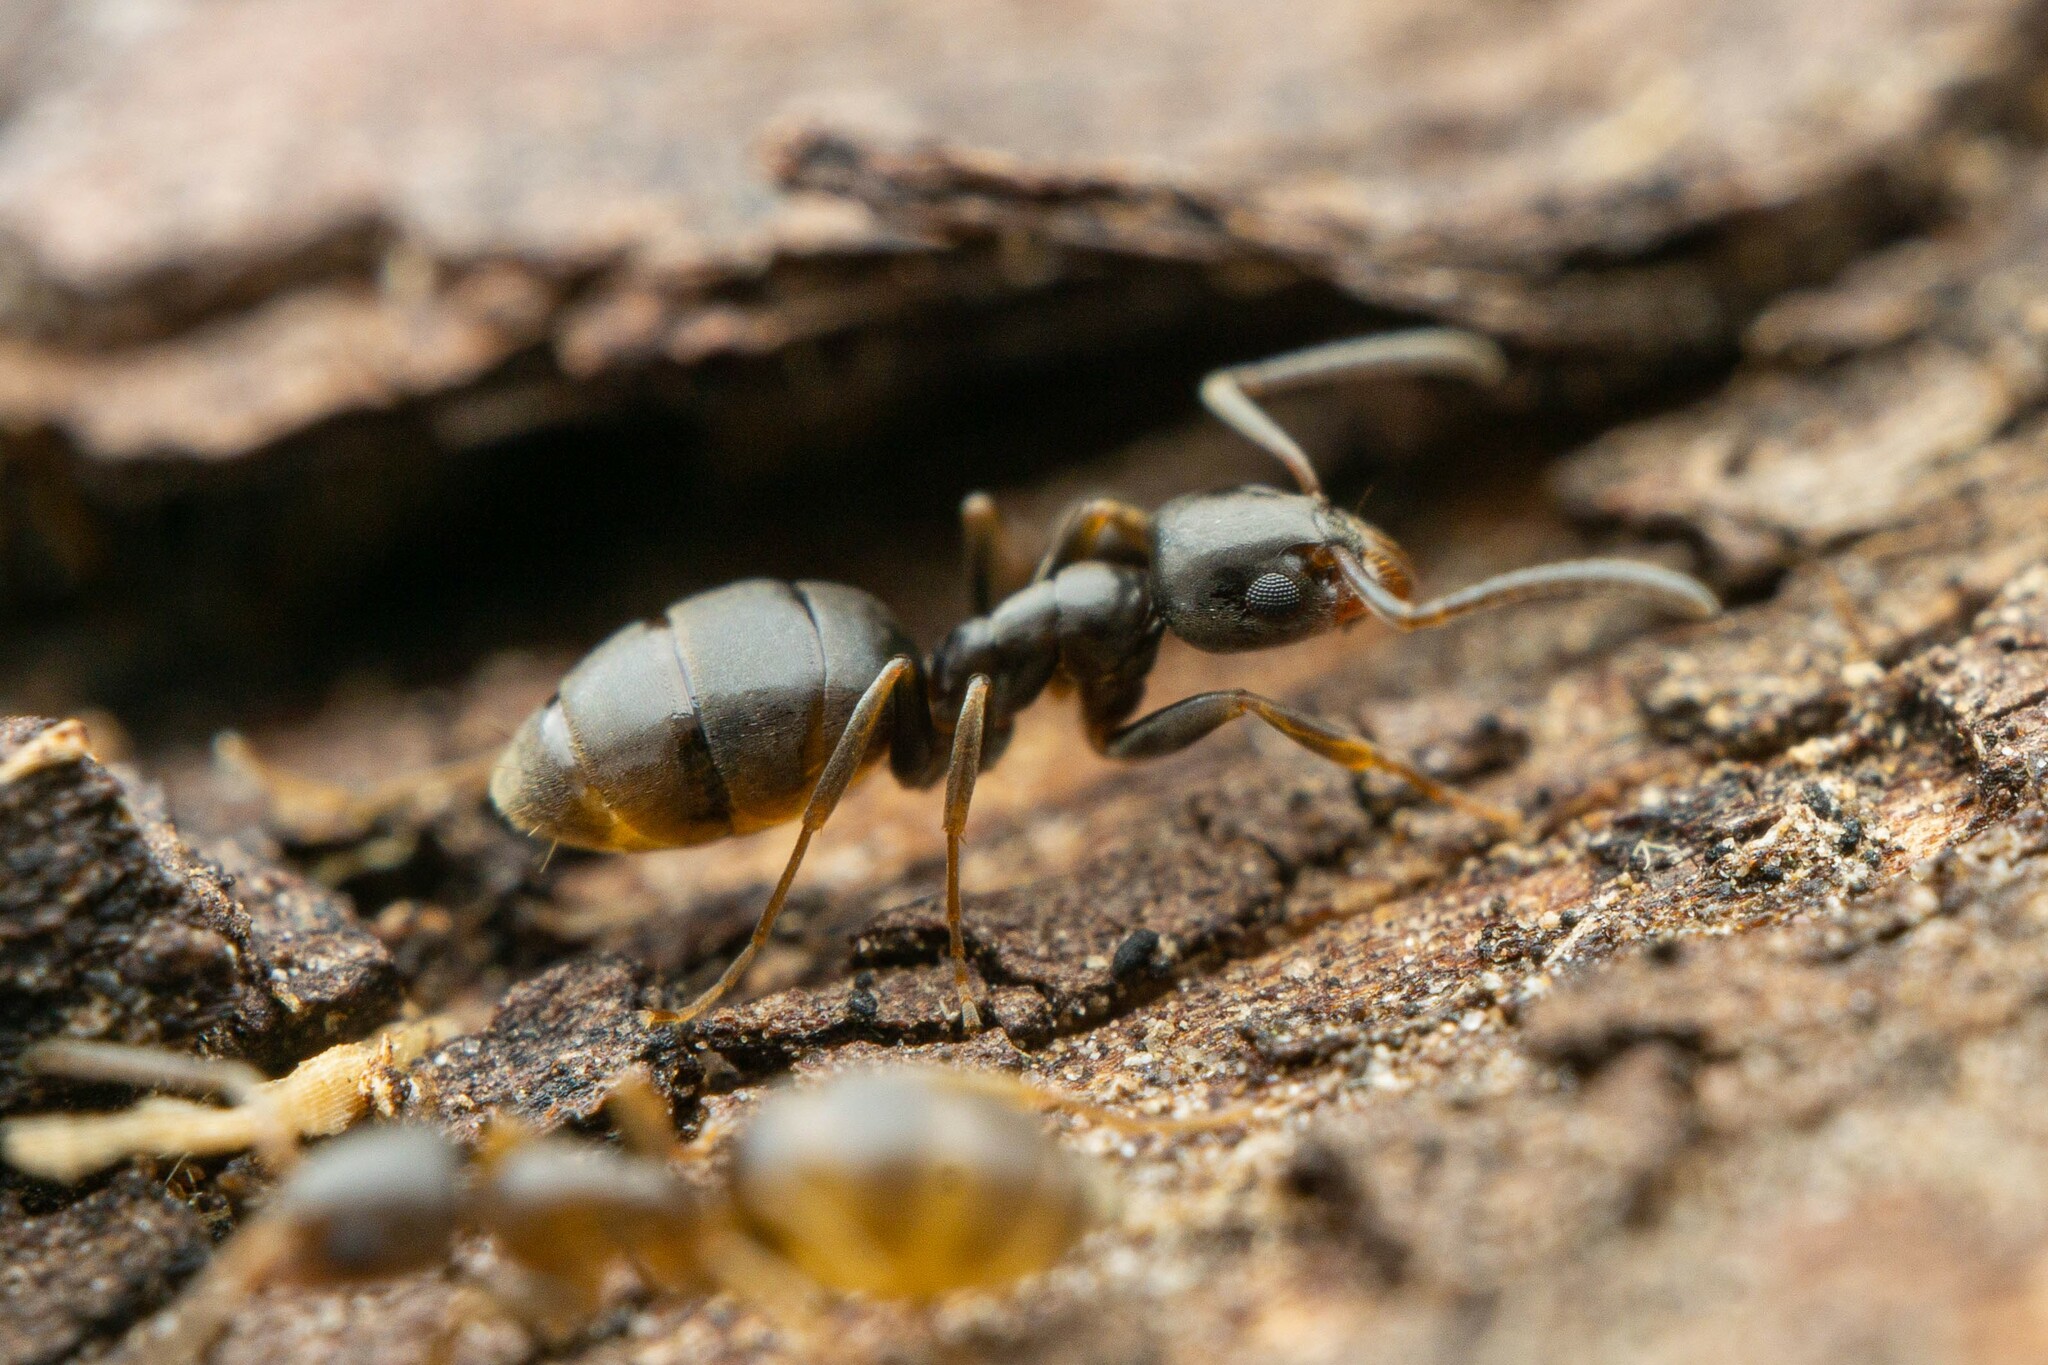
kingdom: Animalia
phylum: Arthropoda
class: Insecta
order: Hymenoptera
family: Formicidae
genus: Tapinoma
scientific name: Tapinoma sessile
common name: Odorous house ant
